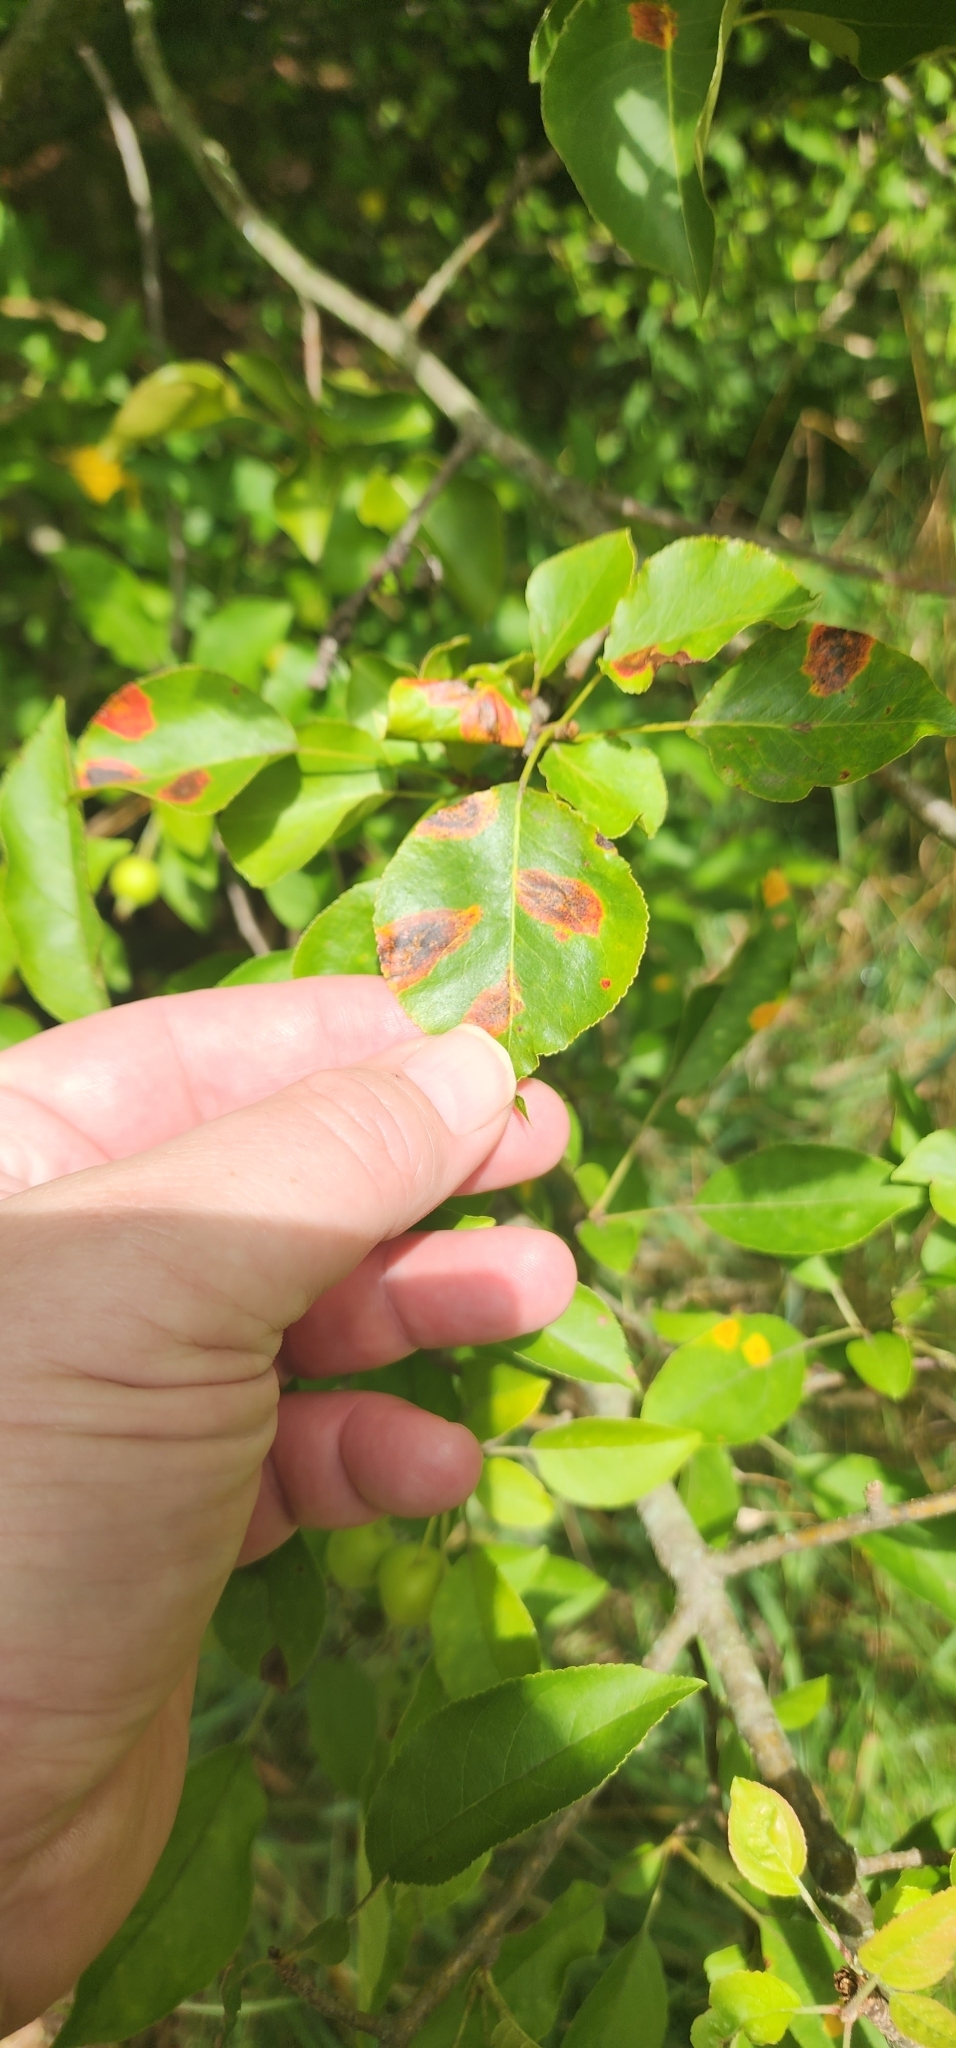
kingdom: Fungi
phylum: Basidiomycota
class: Pucciniomycetes
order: Pucciniales
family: Gymnosporangiaceae
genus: Gymnosporangium
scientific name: Gymnosporangium sabinae
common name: Pear trellis rust fungus
